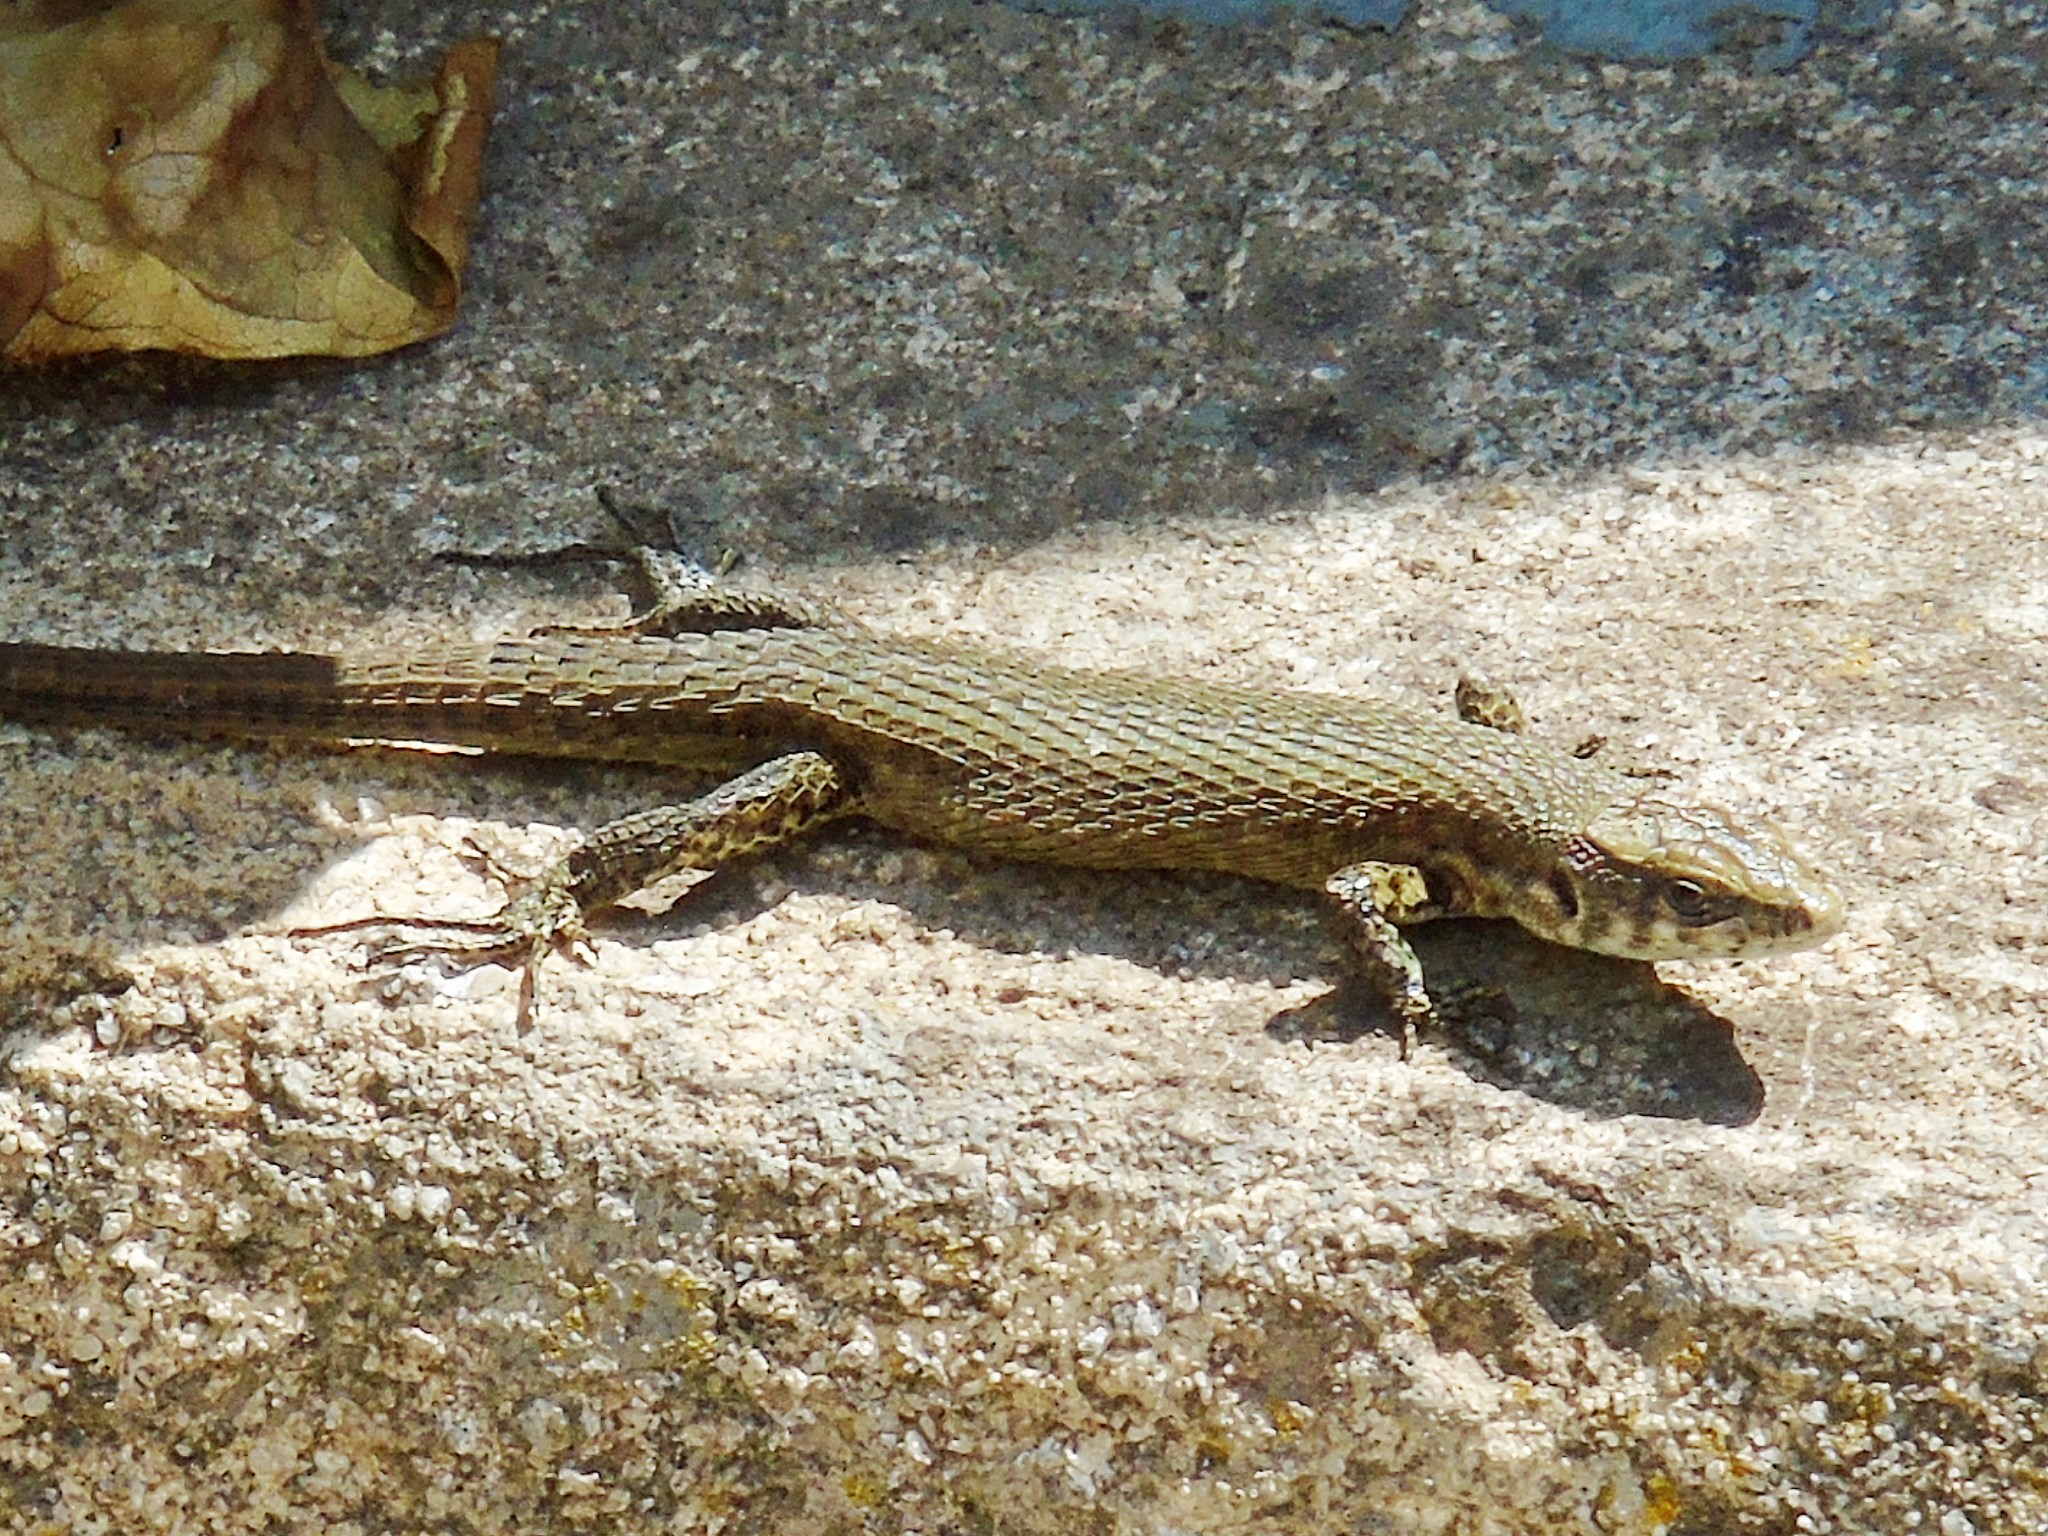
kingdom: Animalia
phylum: Chordata
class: Squamata
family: Lacertidae
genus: Algyroides
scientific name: Algyroides moreoticus
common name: Greek algyroides
